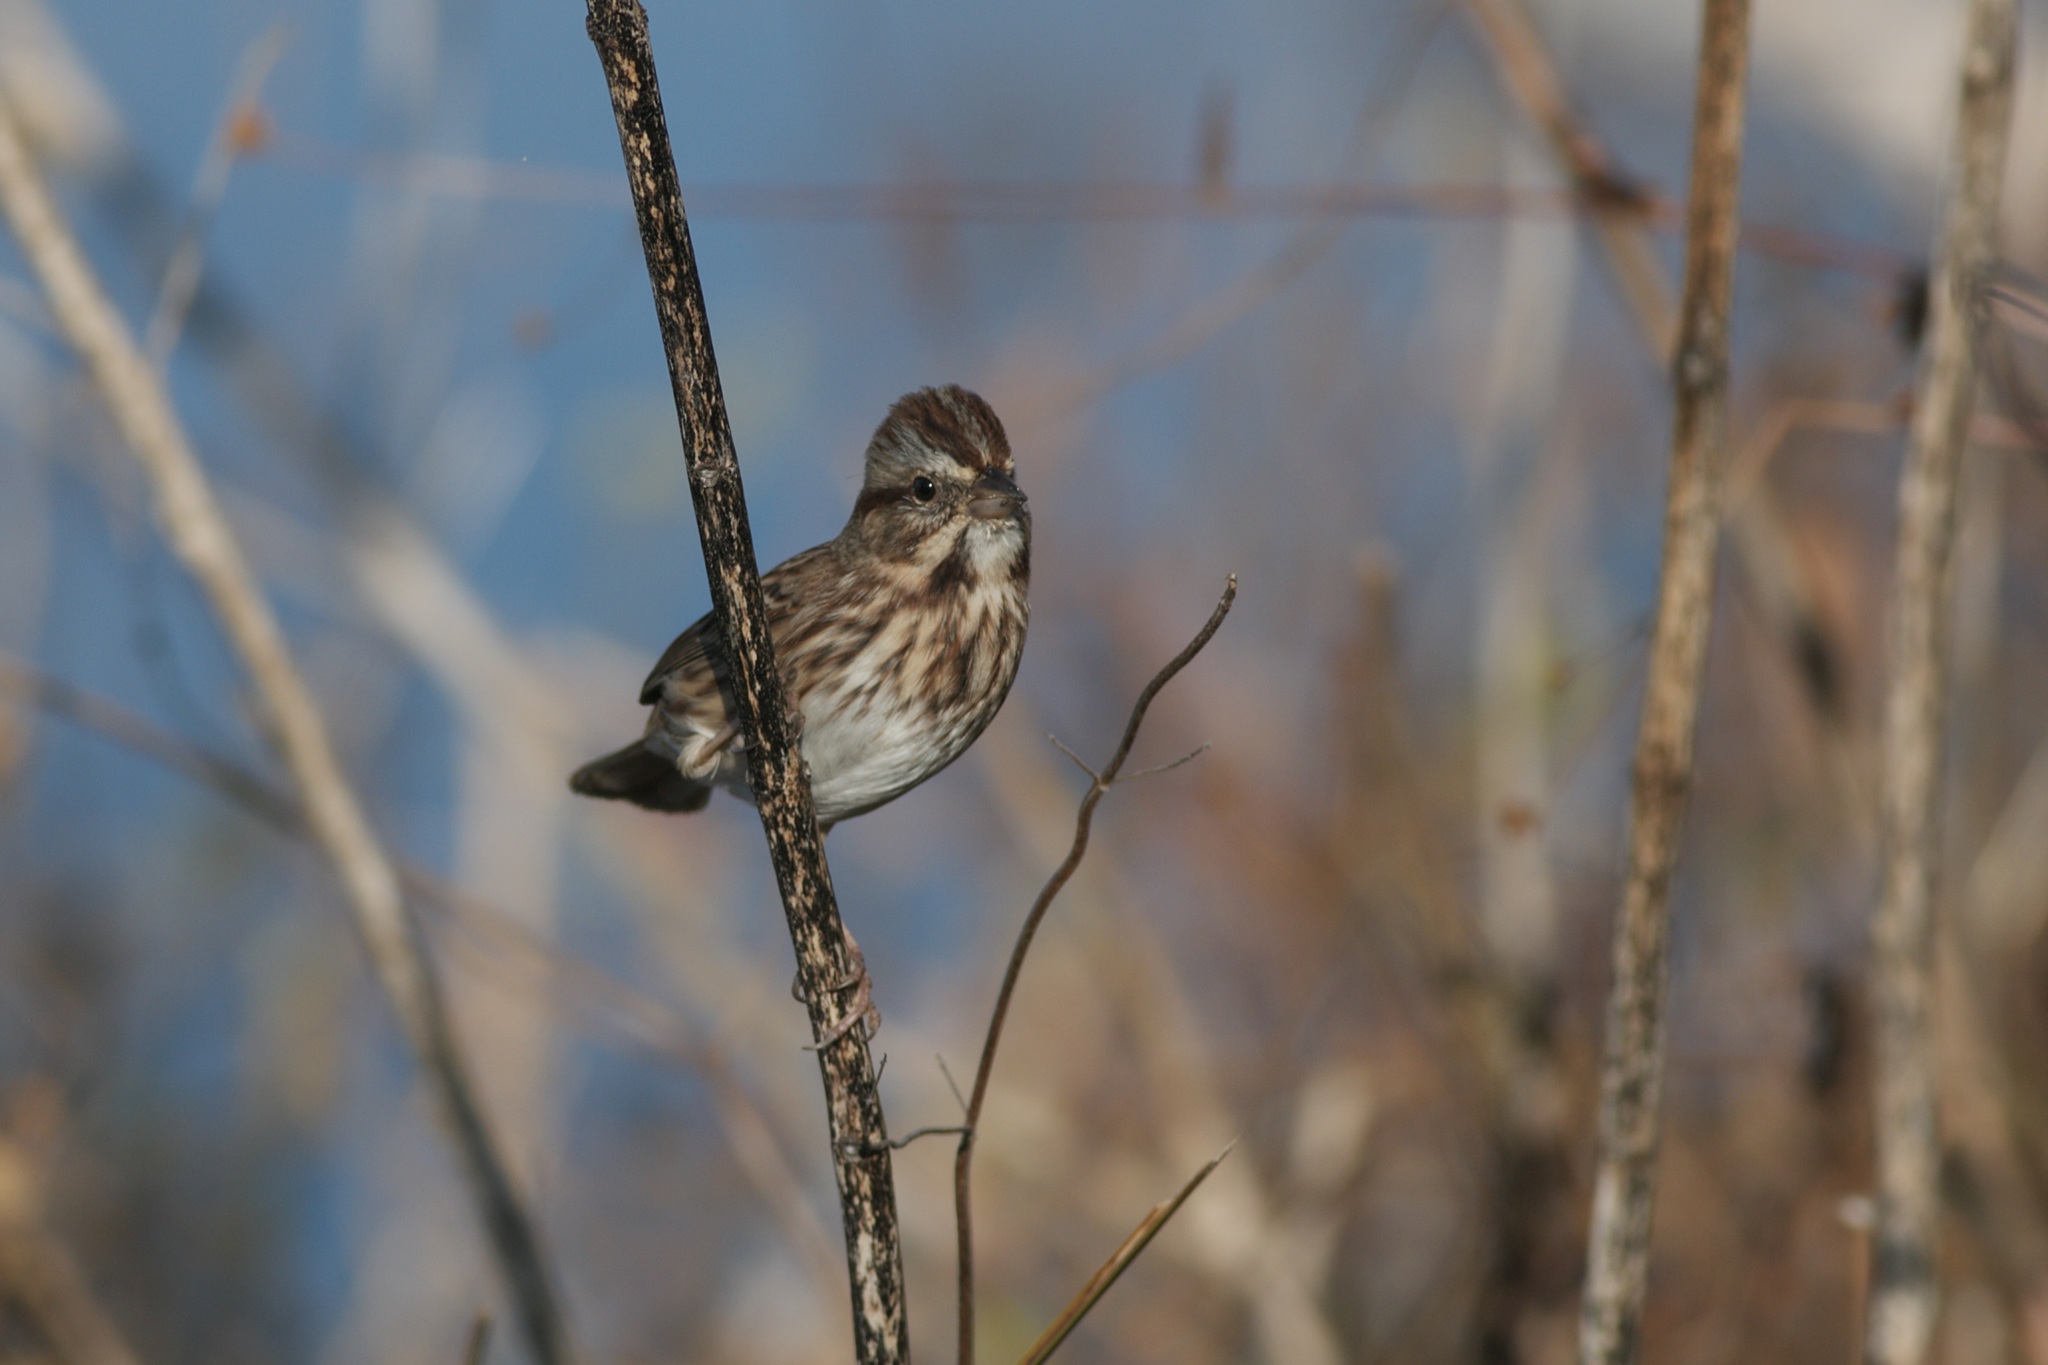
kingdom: Animalia
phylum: Chordata
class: Aves
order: Passeriformes
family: Passerellidae
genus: Melospiza
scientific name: Melospiza melodia
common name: Song sparrow
